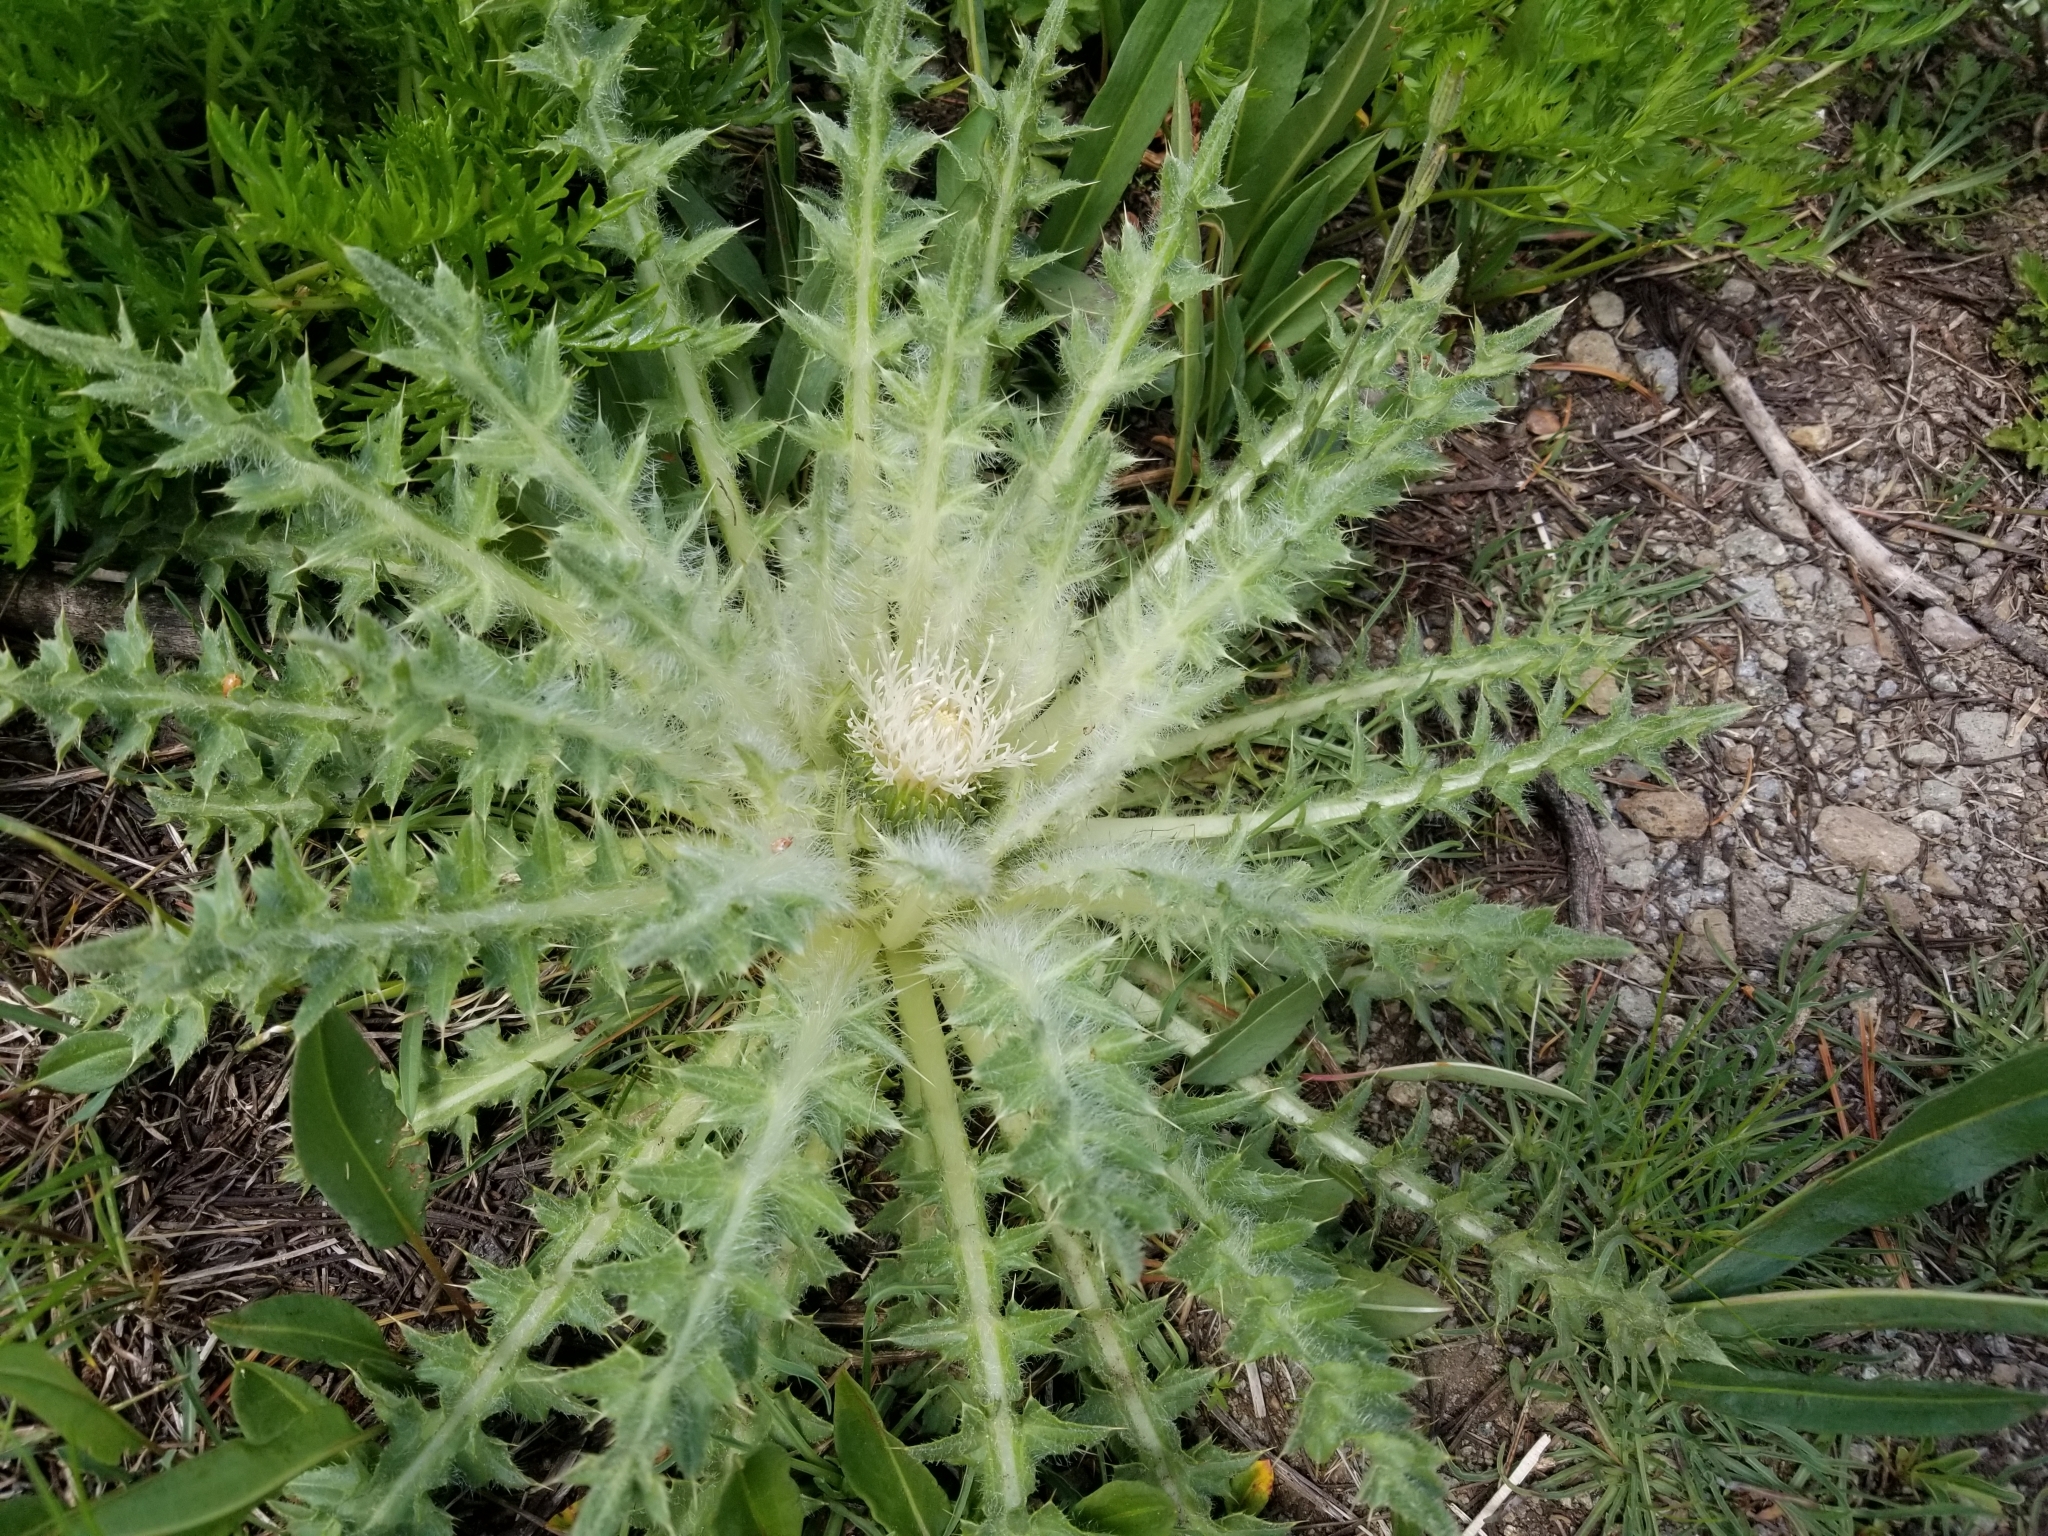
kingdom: Plantae
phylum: Tracheophyta
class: Magnoliopsida
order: Asterales
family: Asteraceae
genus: Cirsium
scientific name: Cirsium scariosum
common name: Meadow thistle
